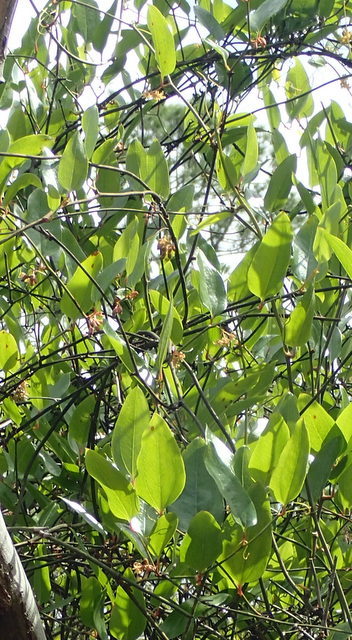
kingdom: Plantae
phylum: Tracheophyta
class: Liliopsida
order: Liliales
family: Smilacaceae
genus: Smilax
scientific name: Smilax walteri
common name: Coral greenbrier
